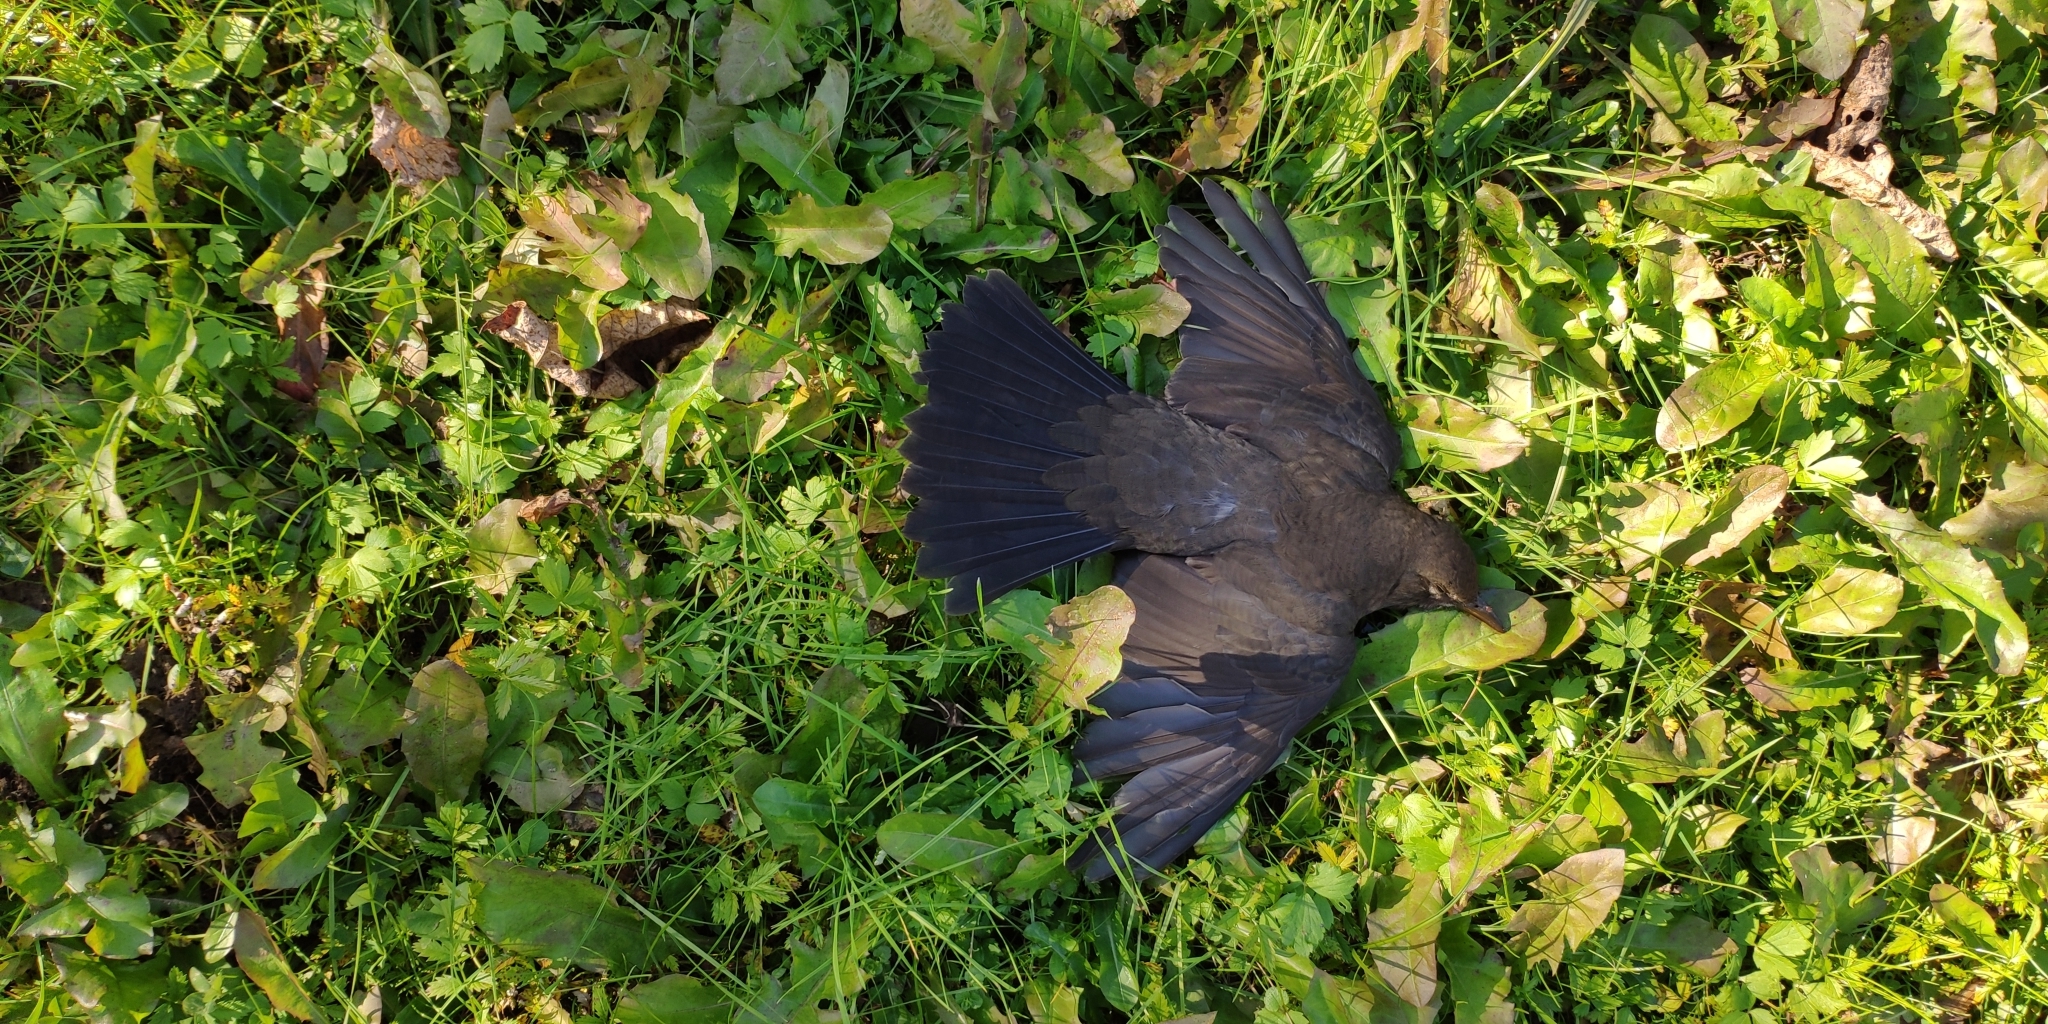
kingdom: Animalia
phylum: Chordata
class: Aves
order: Passeriformes
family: Turdidae
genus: Turdus
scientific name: Turdus merula
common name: Common blackbird
